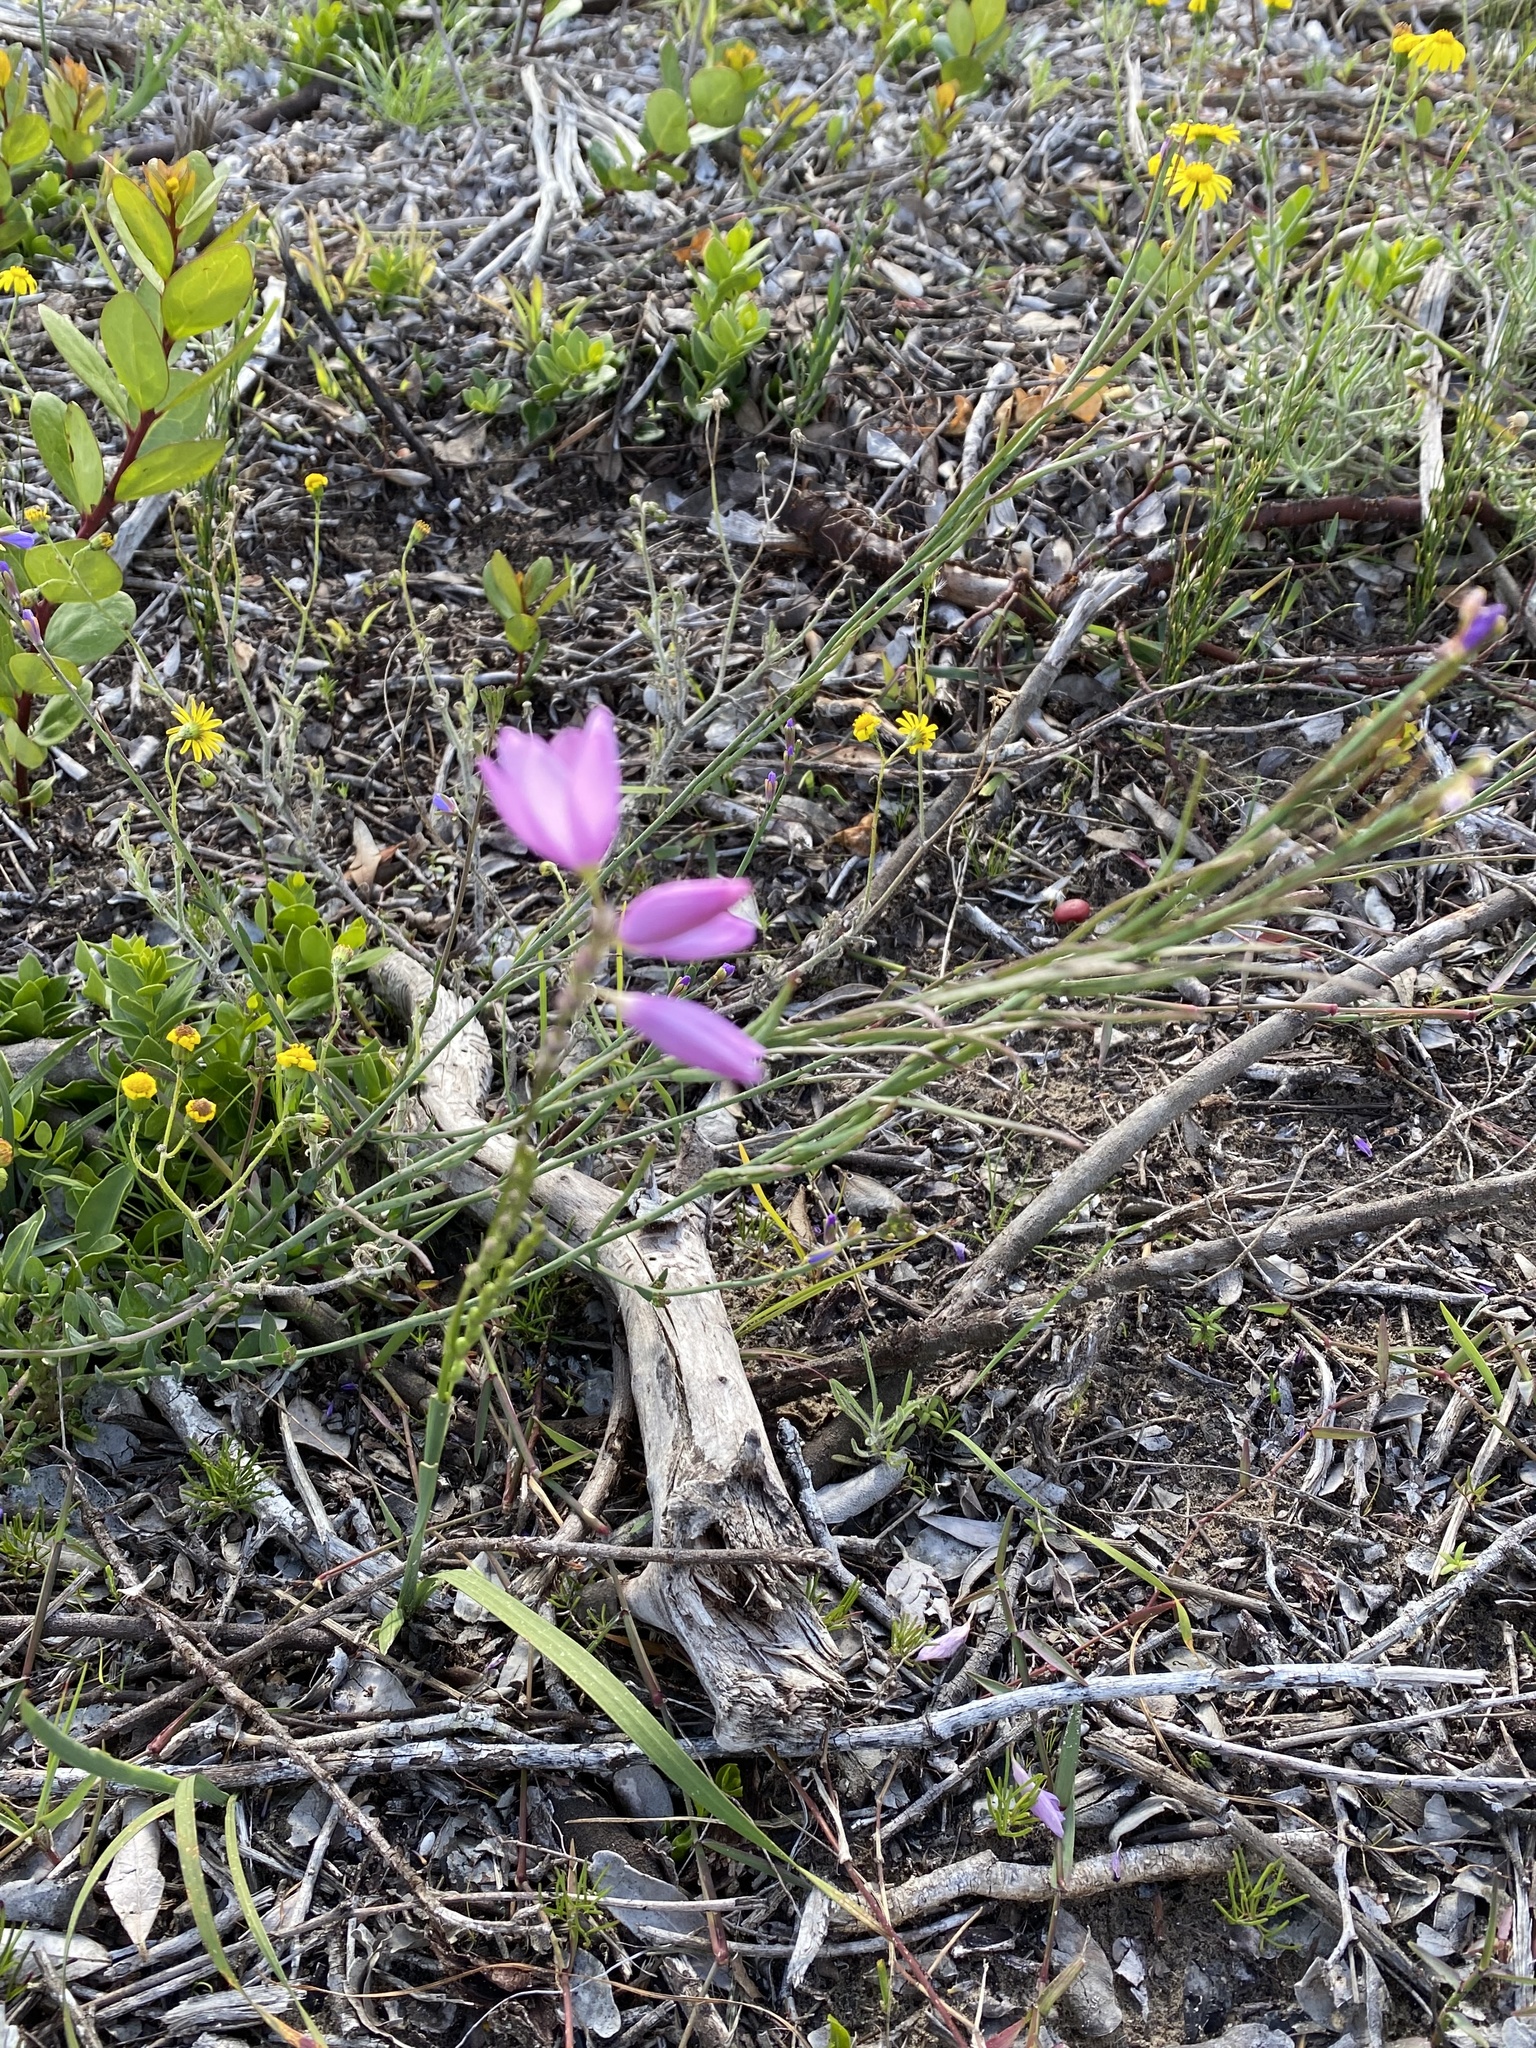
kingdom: Plantae
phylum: Tracheophyta
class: Liliopsida
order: Asparagales
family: Iridaceae
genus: Ixia
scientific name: Ixia flexuosa
